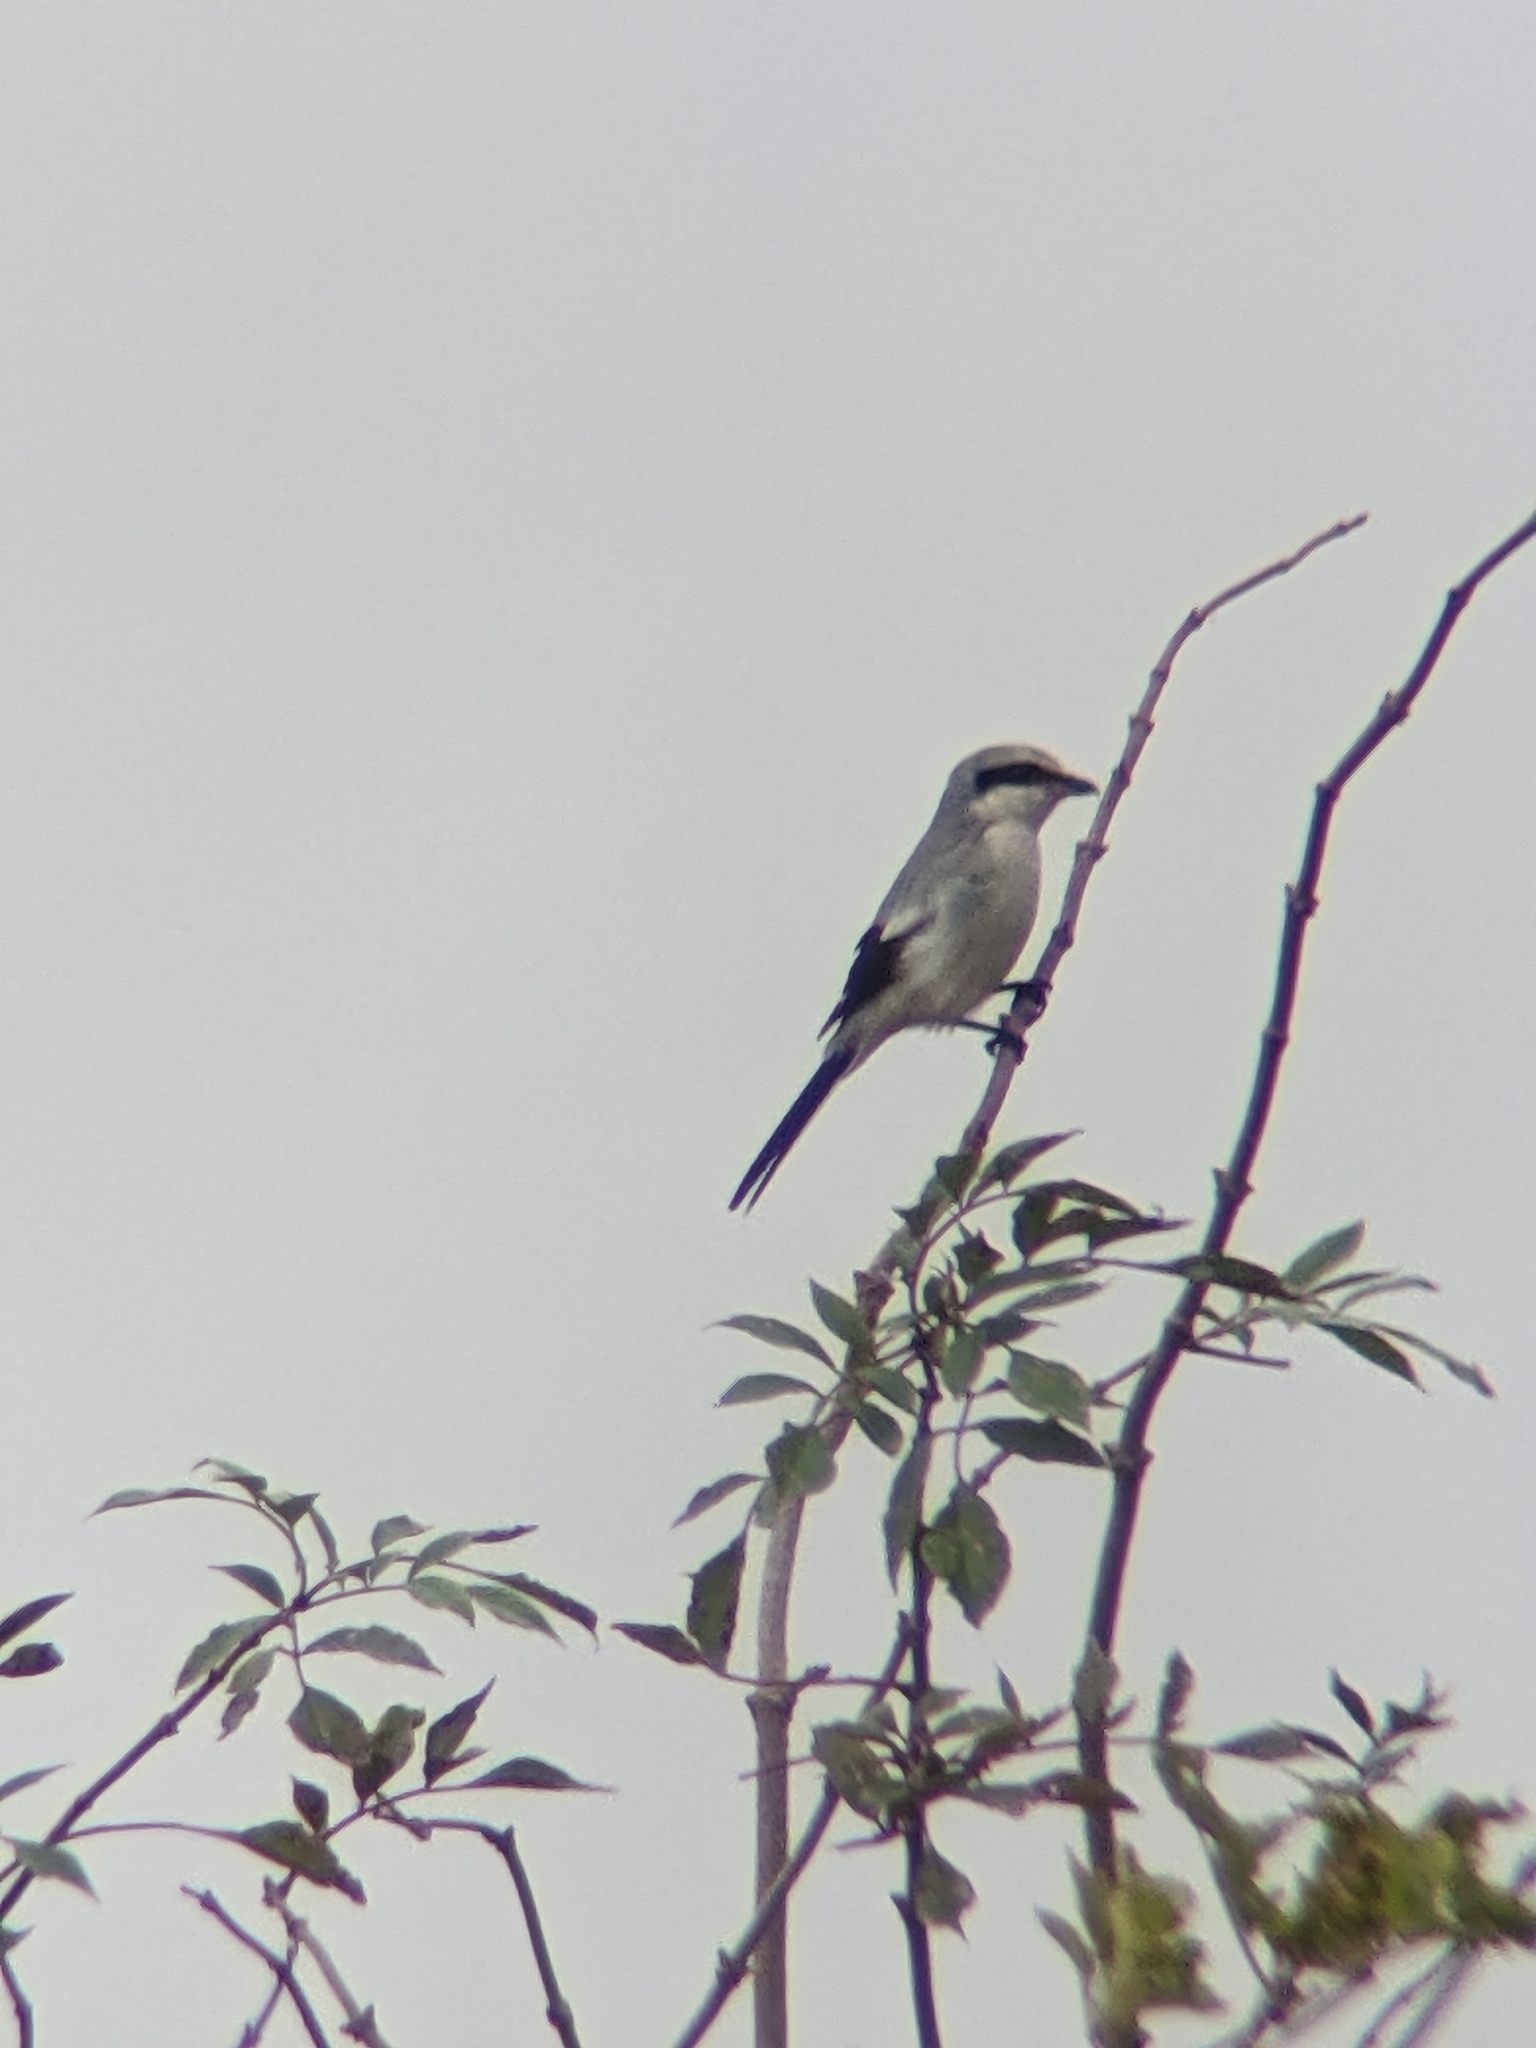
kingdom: Animalia
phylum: Chordata
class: Aves
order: Passeriformes
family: Laniidae
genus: Lanius
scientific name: Lanius excubitor
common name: Great grey shrike
